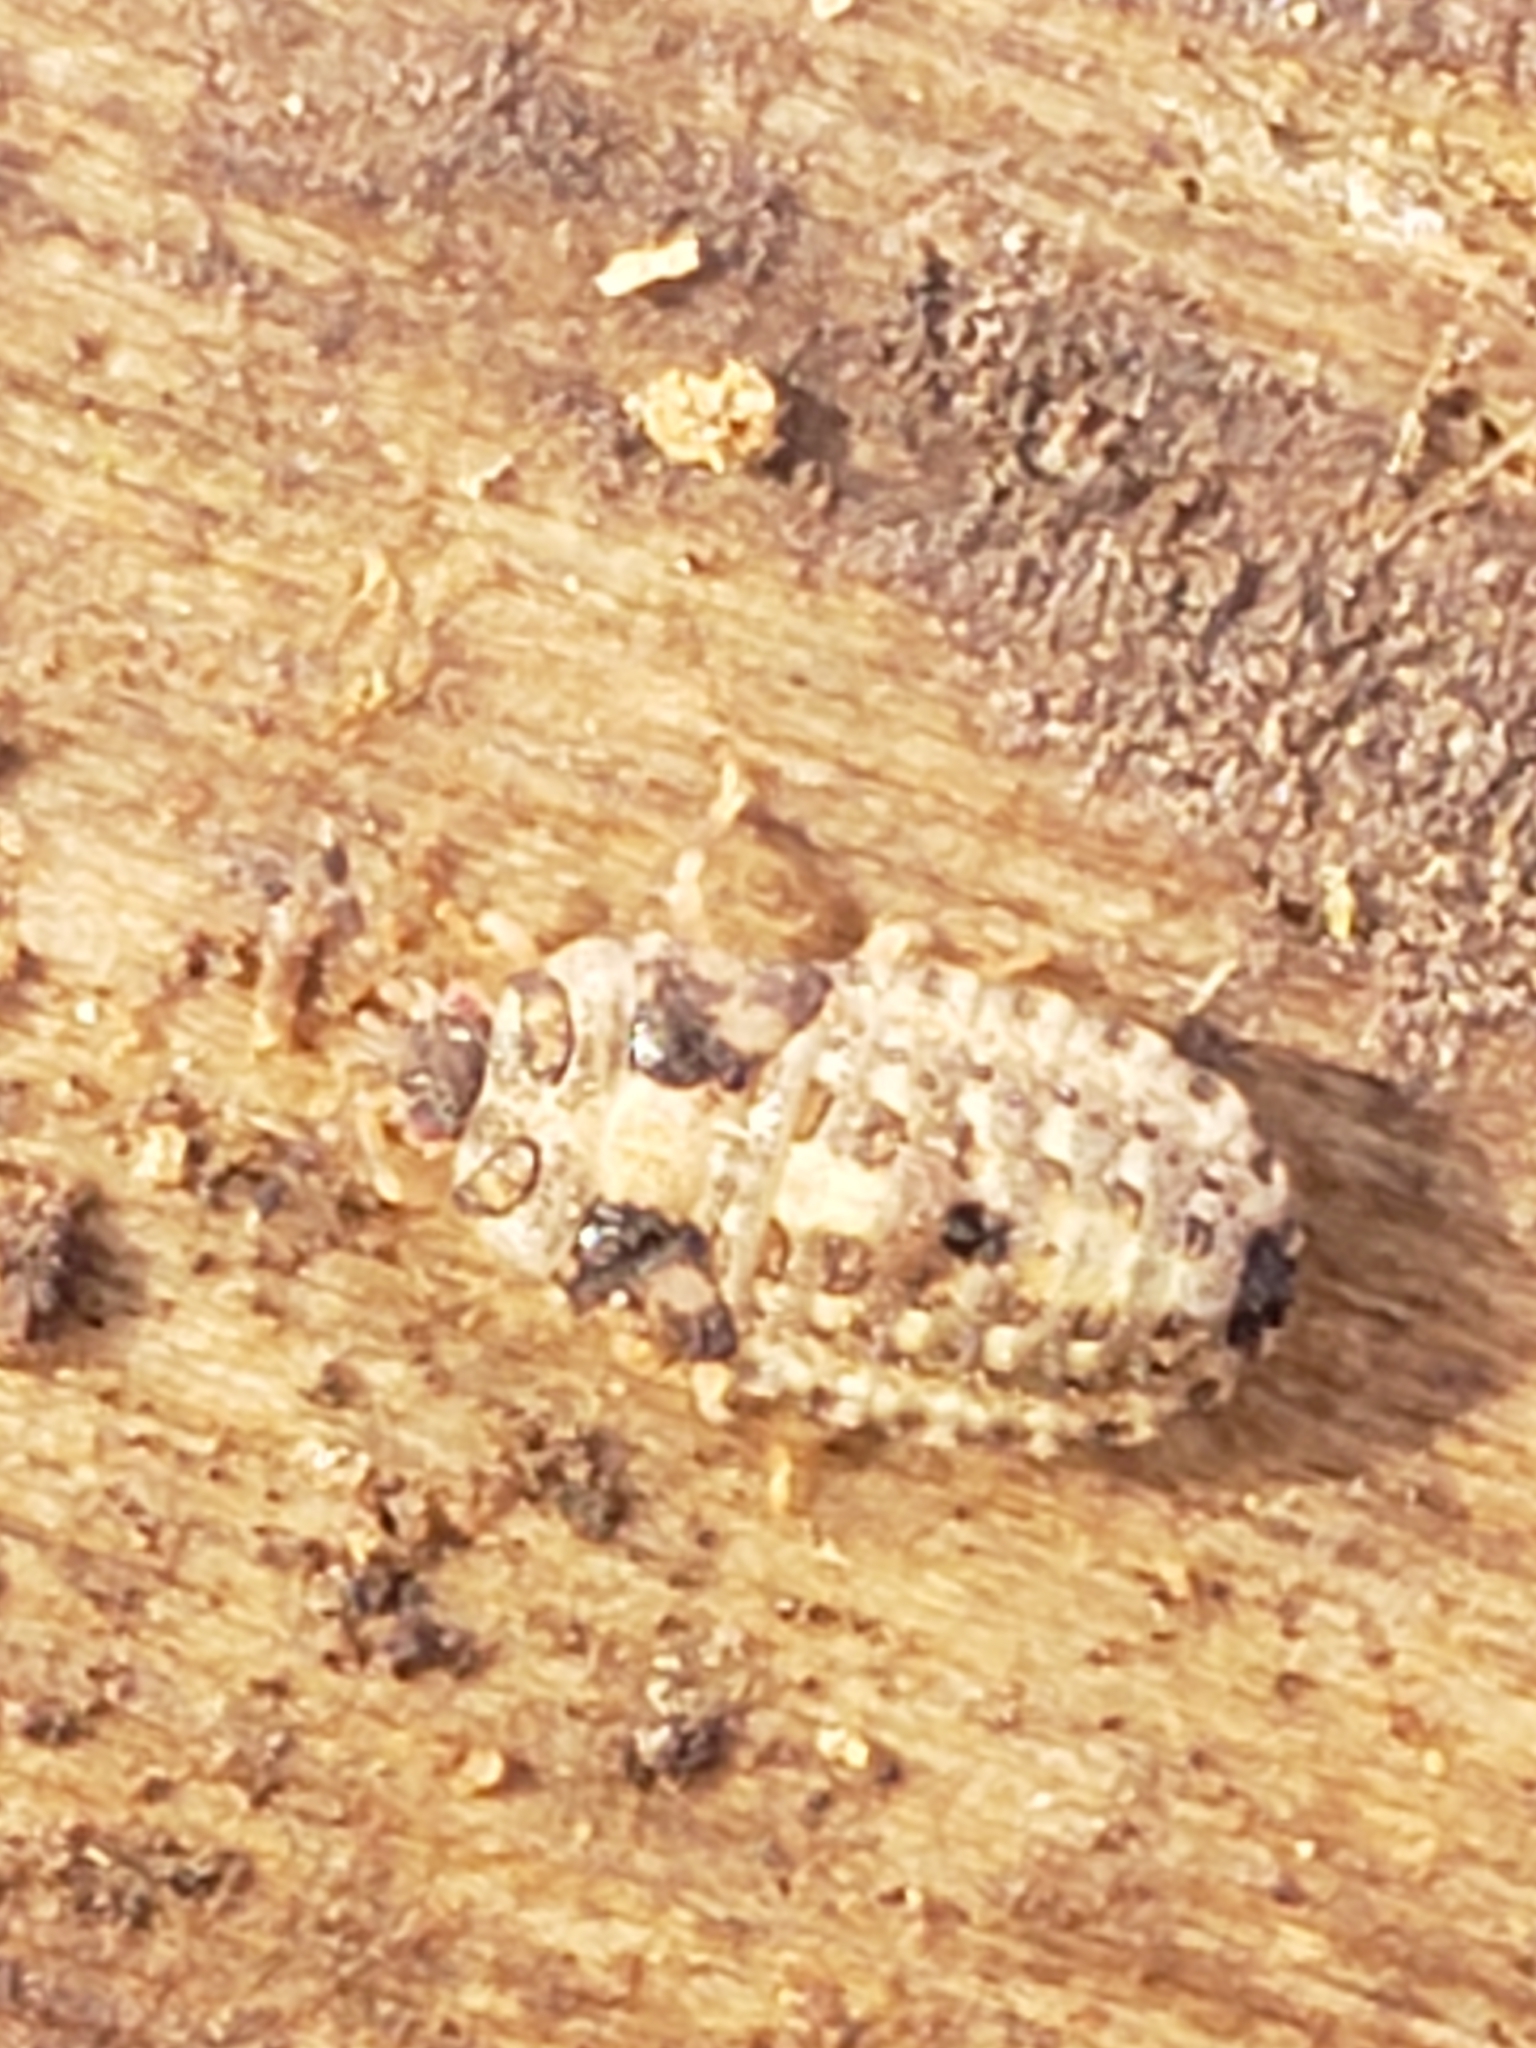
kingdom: Animalia
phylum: Arthropoda
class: Insecta
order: Hemiptera
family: Aradidae
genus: Mezira
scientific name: Mezira
